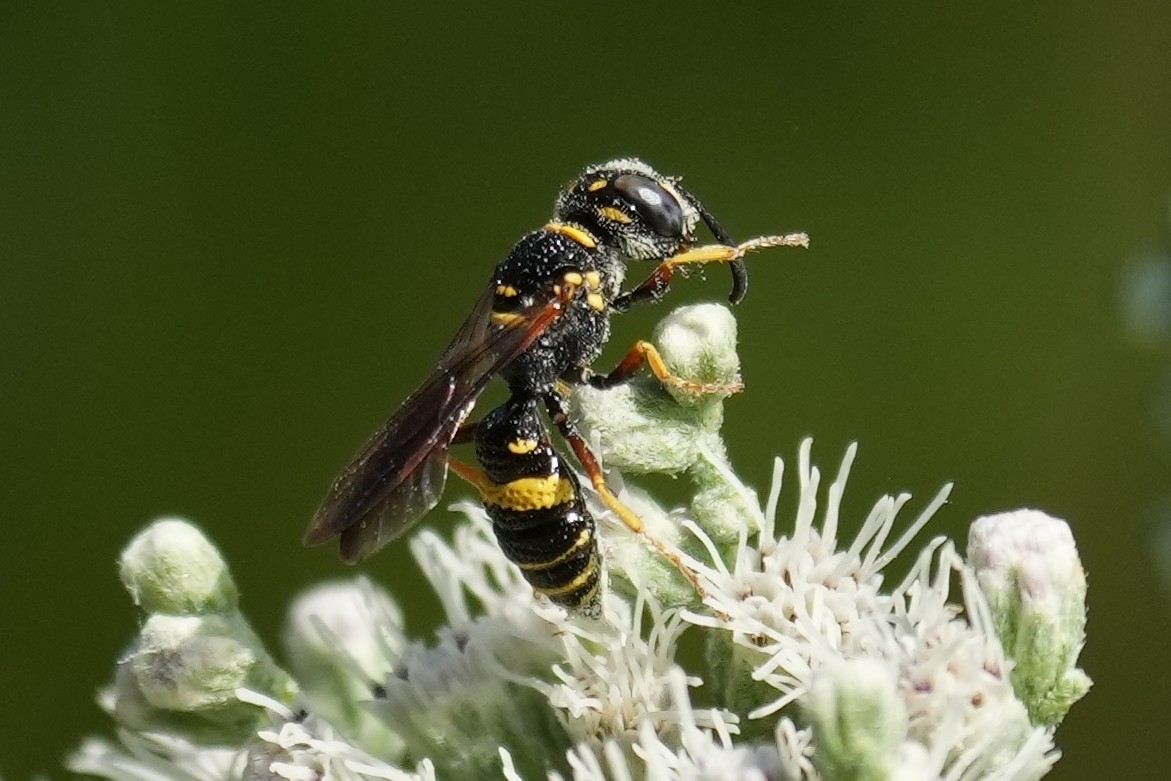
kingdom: Animalia
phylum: Arthropoda
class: Insecta
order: Hymenoptera
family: Crabronidae
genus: Philanthus
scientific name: Philanthus gibbosus
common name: Humped beewolf
